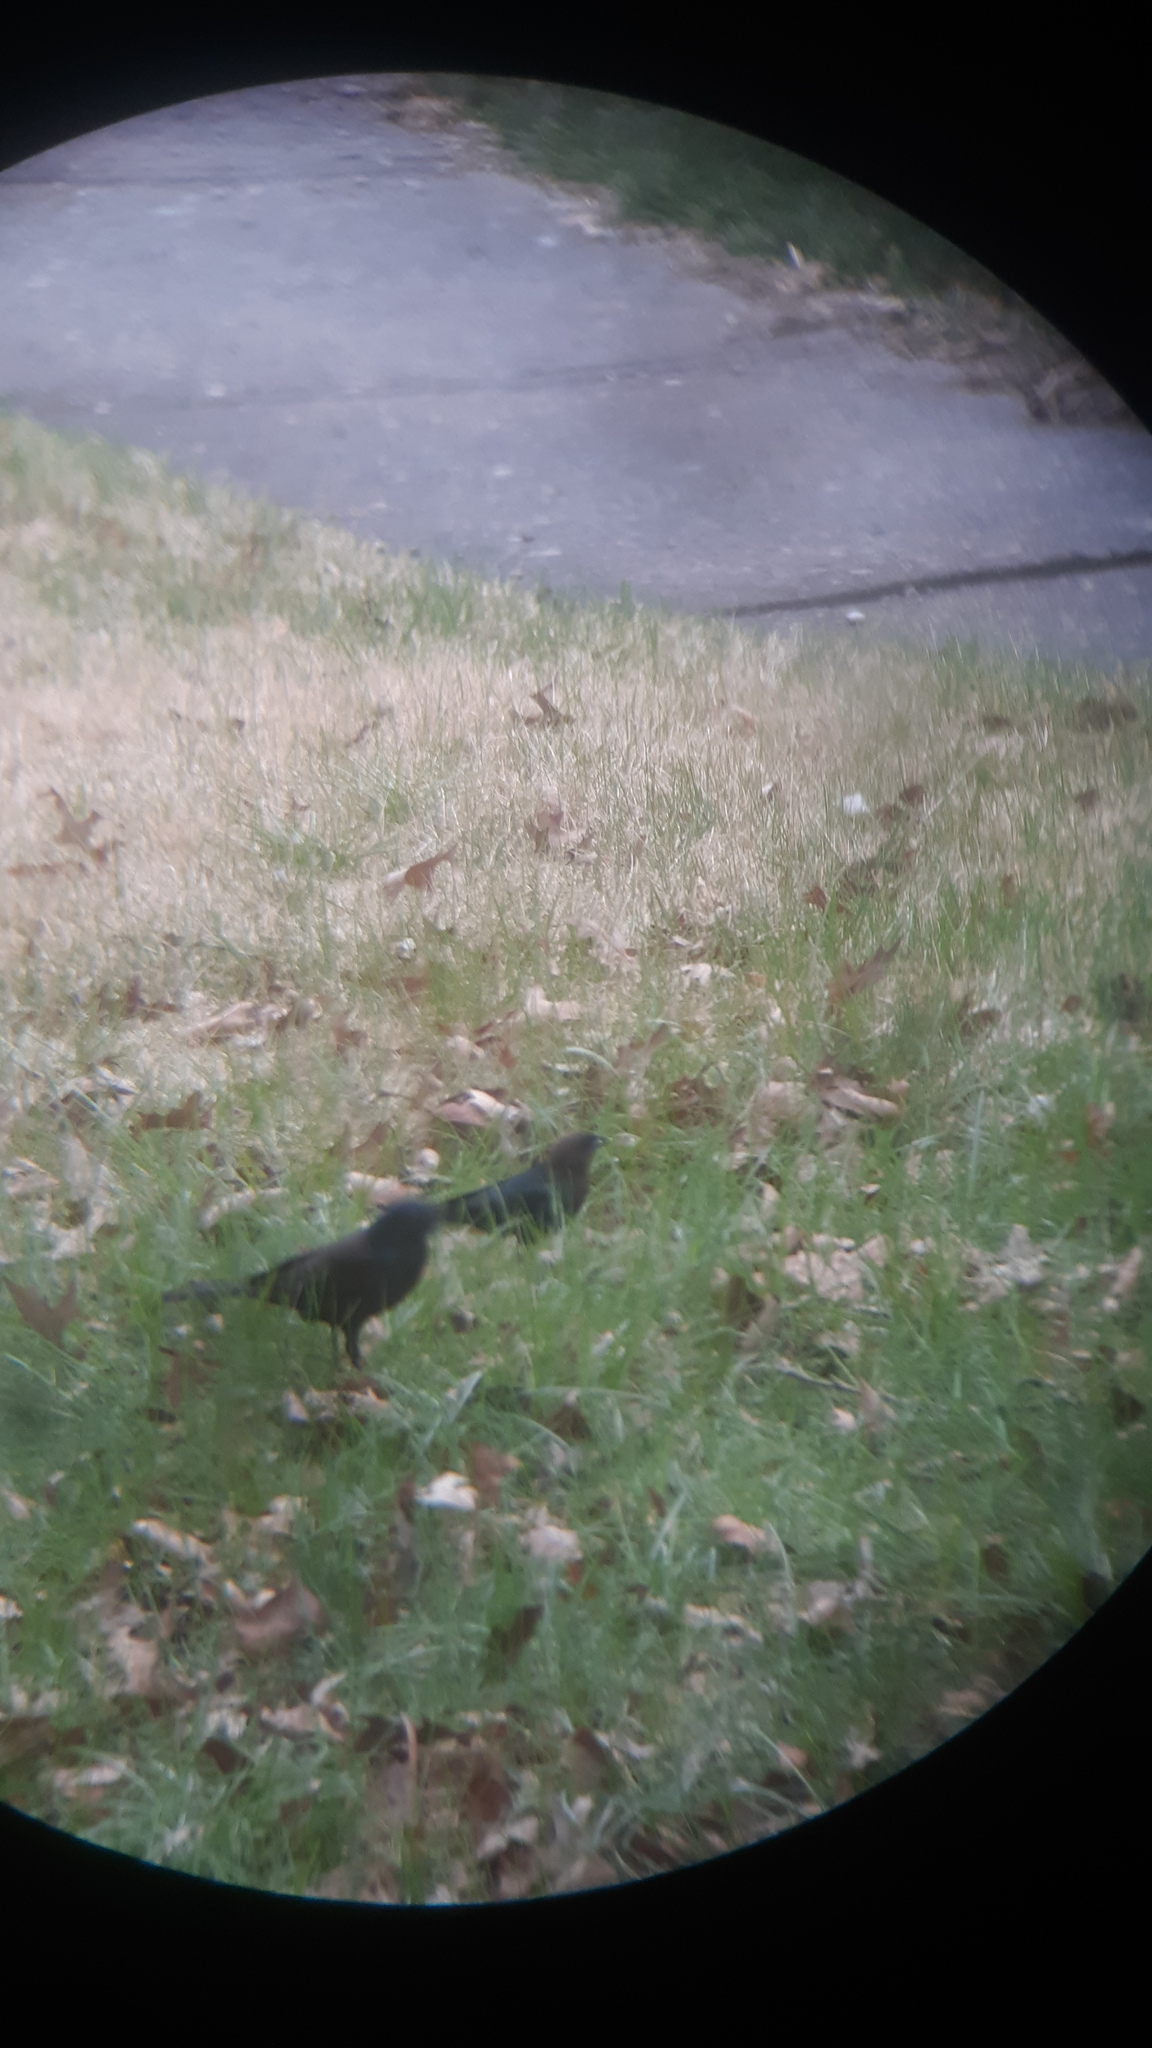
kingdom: Animalia
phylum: Chordata
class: Aves
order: Passeriformes
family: Icteridae
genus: Molothrus
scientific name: Molothrus ater
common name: Brown-headed cowbird
